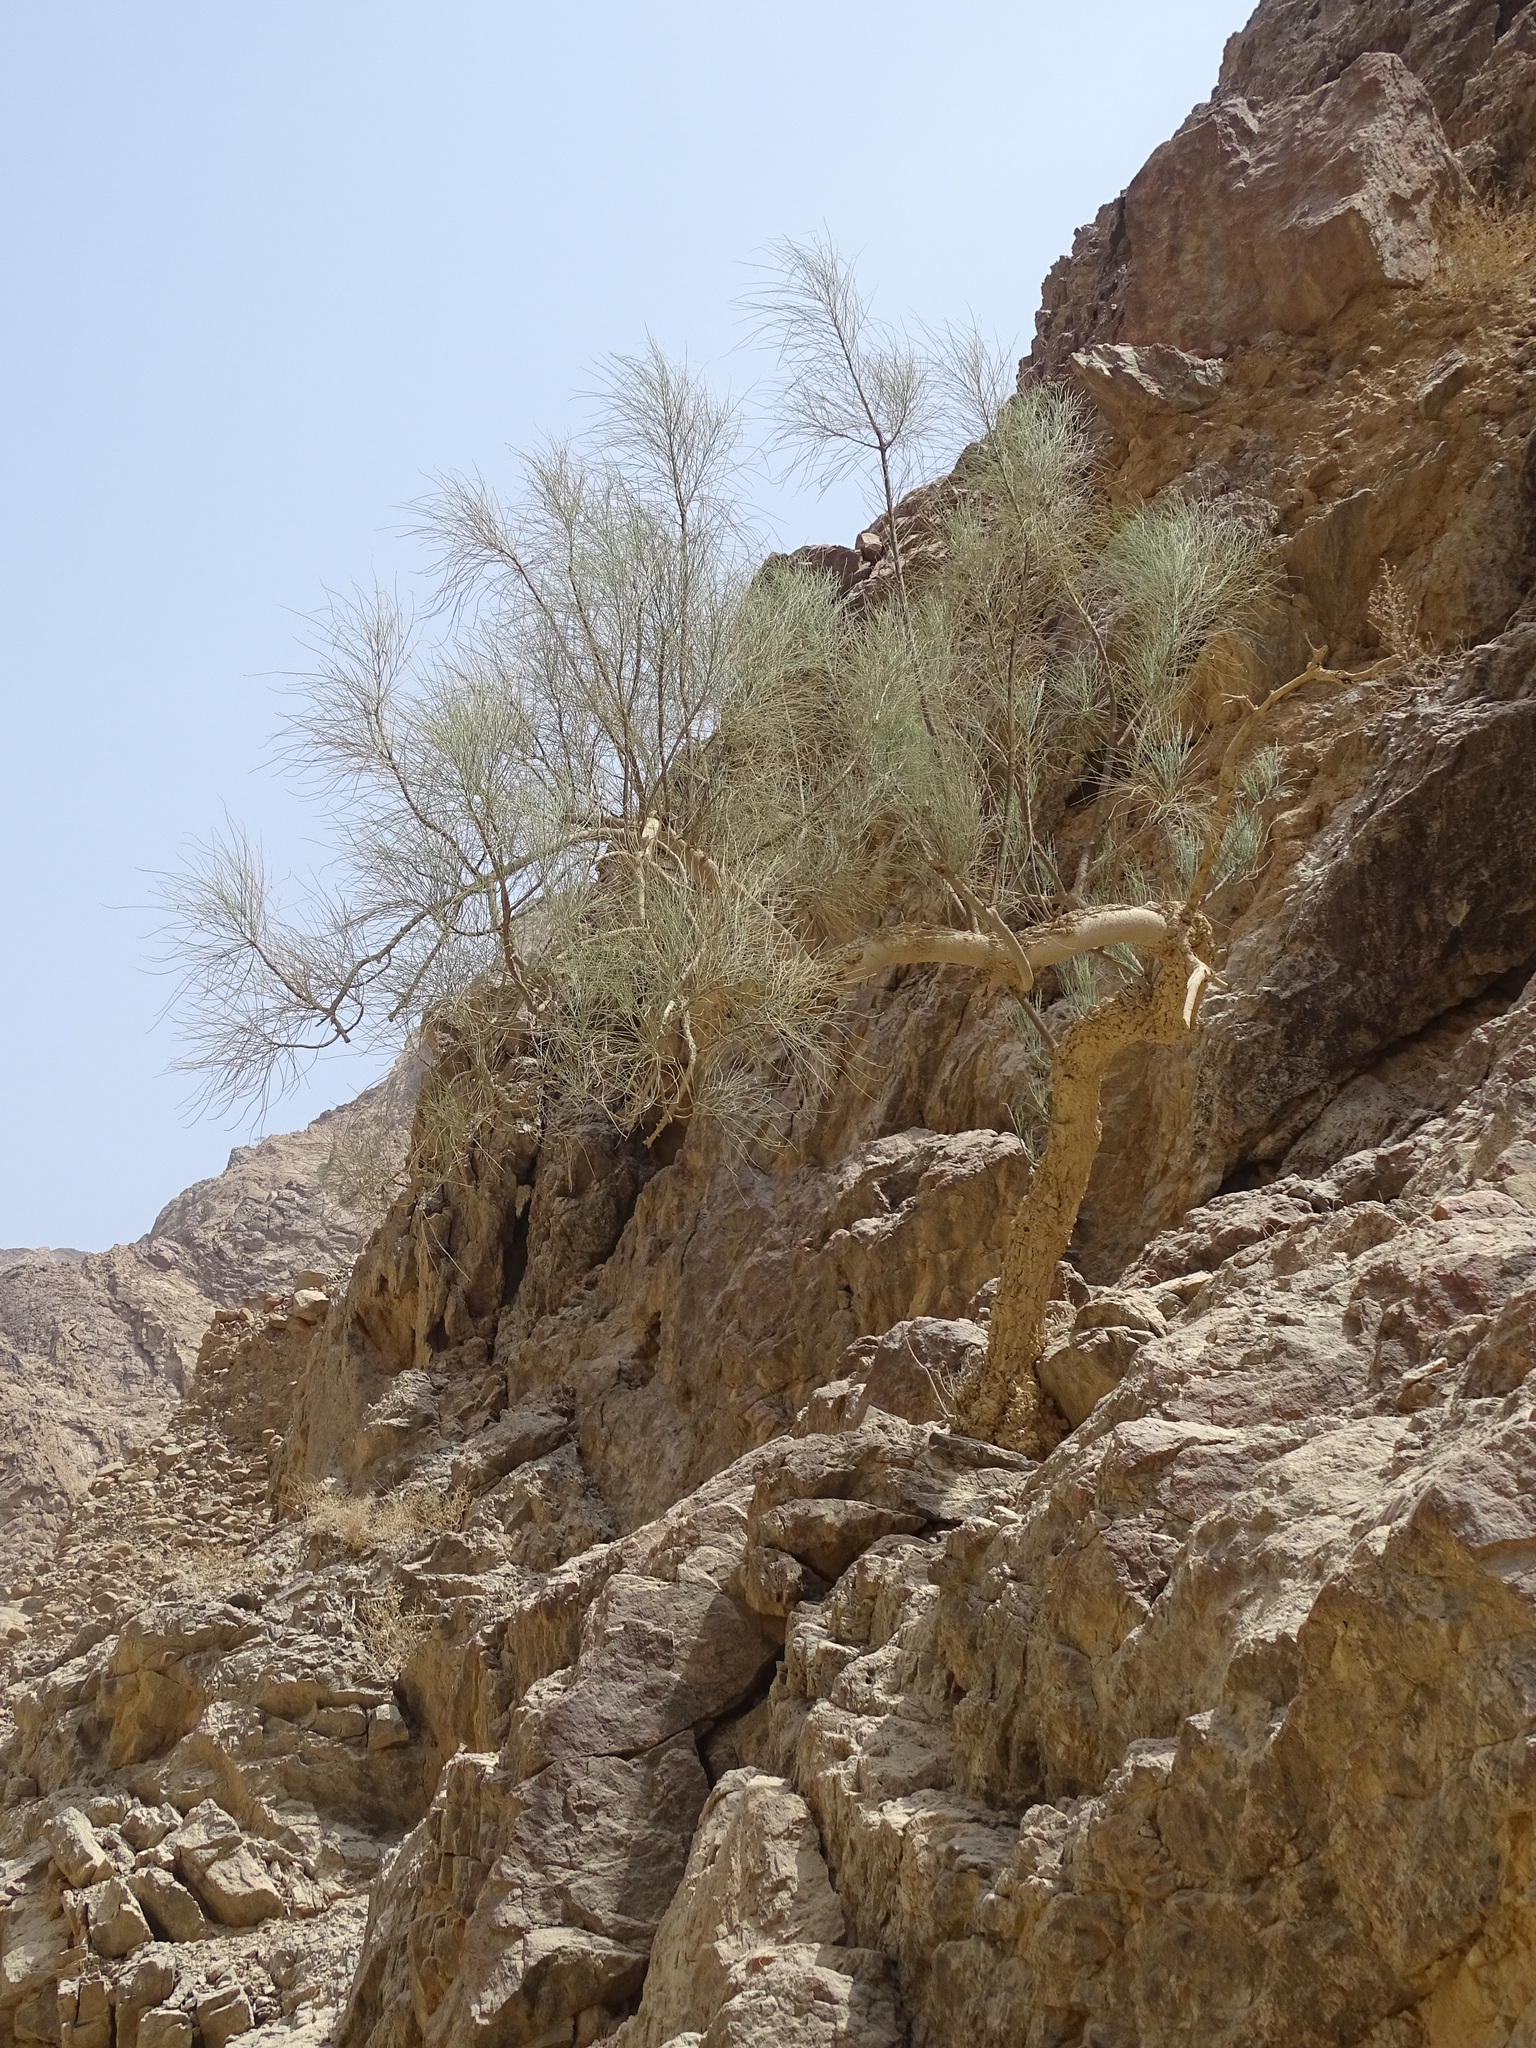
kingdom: Plantae
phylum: Tracheophyta
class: Magnoliopsida
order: Brassicales
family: Moringaceae
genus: Moringa
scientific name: Moringa peregrina
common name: Wild drumstick tree
